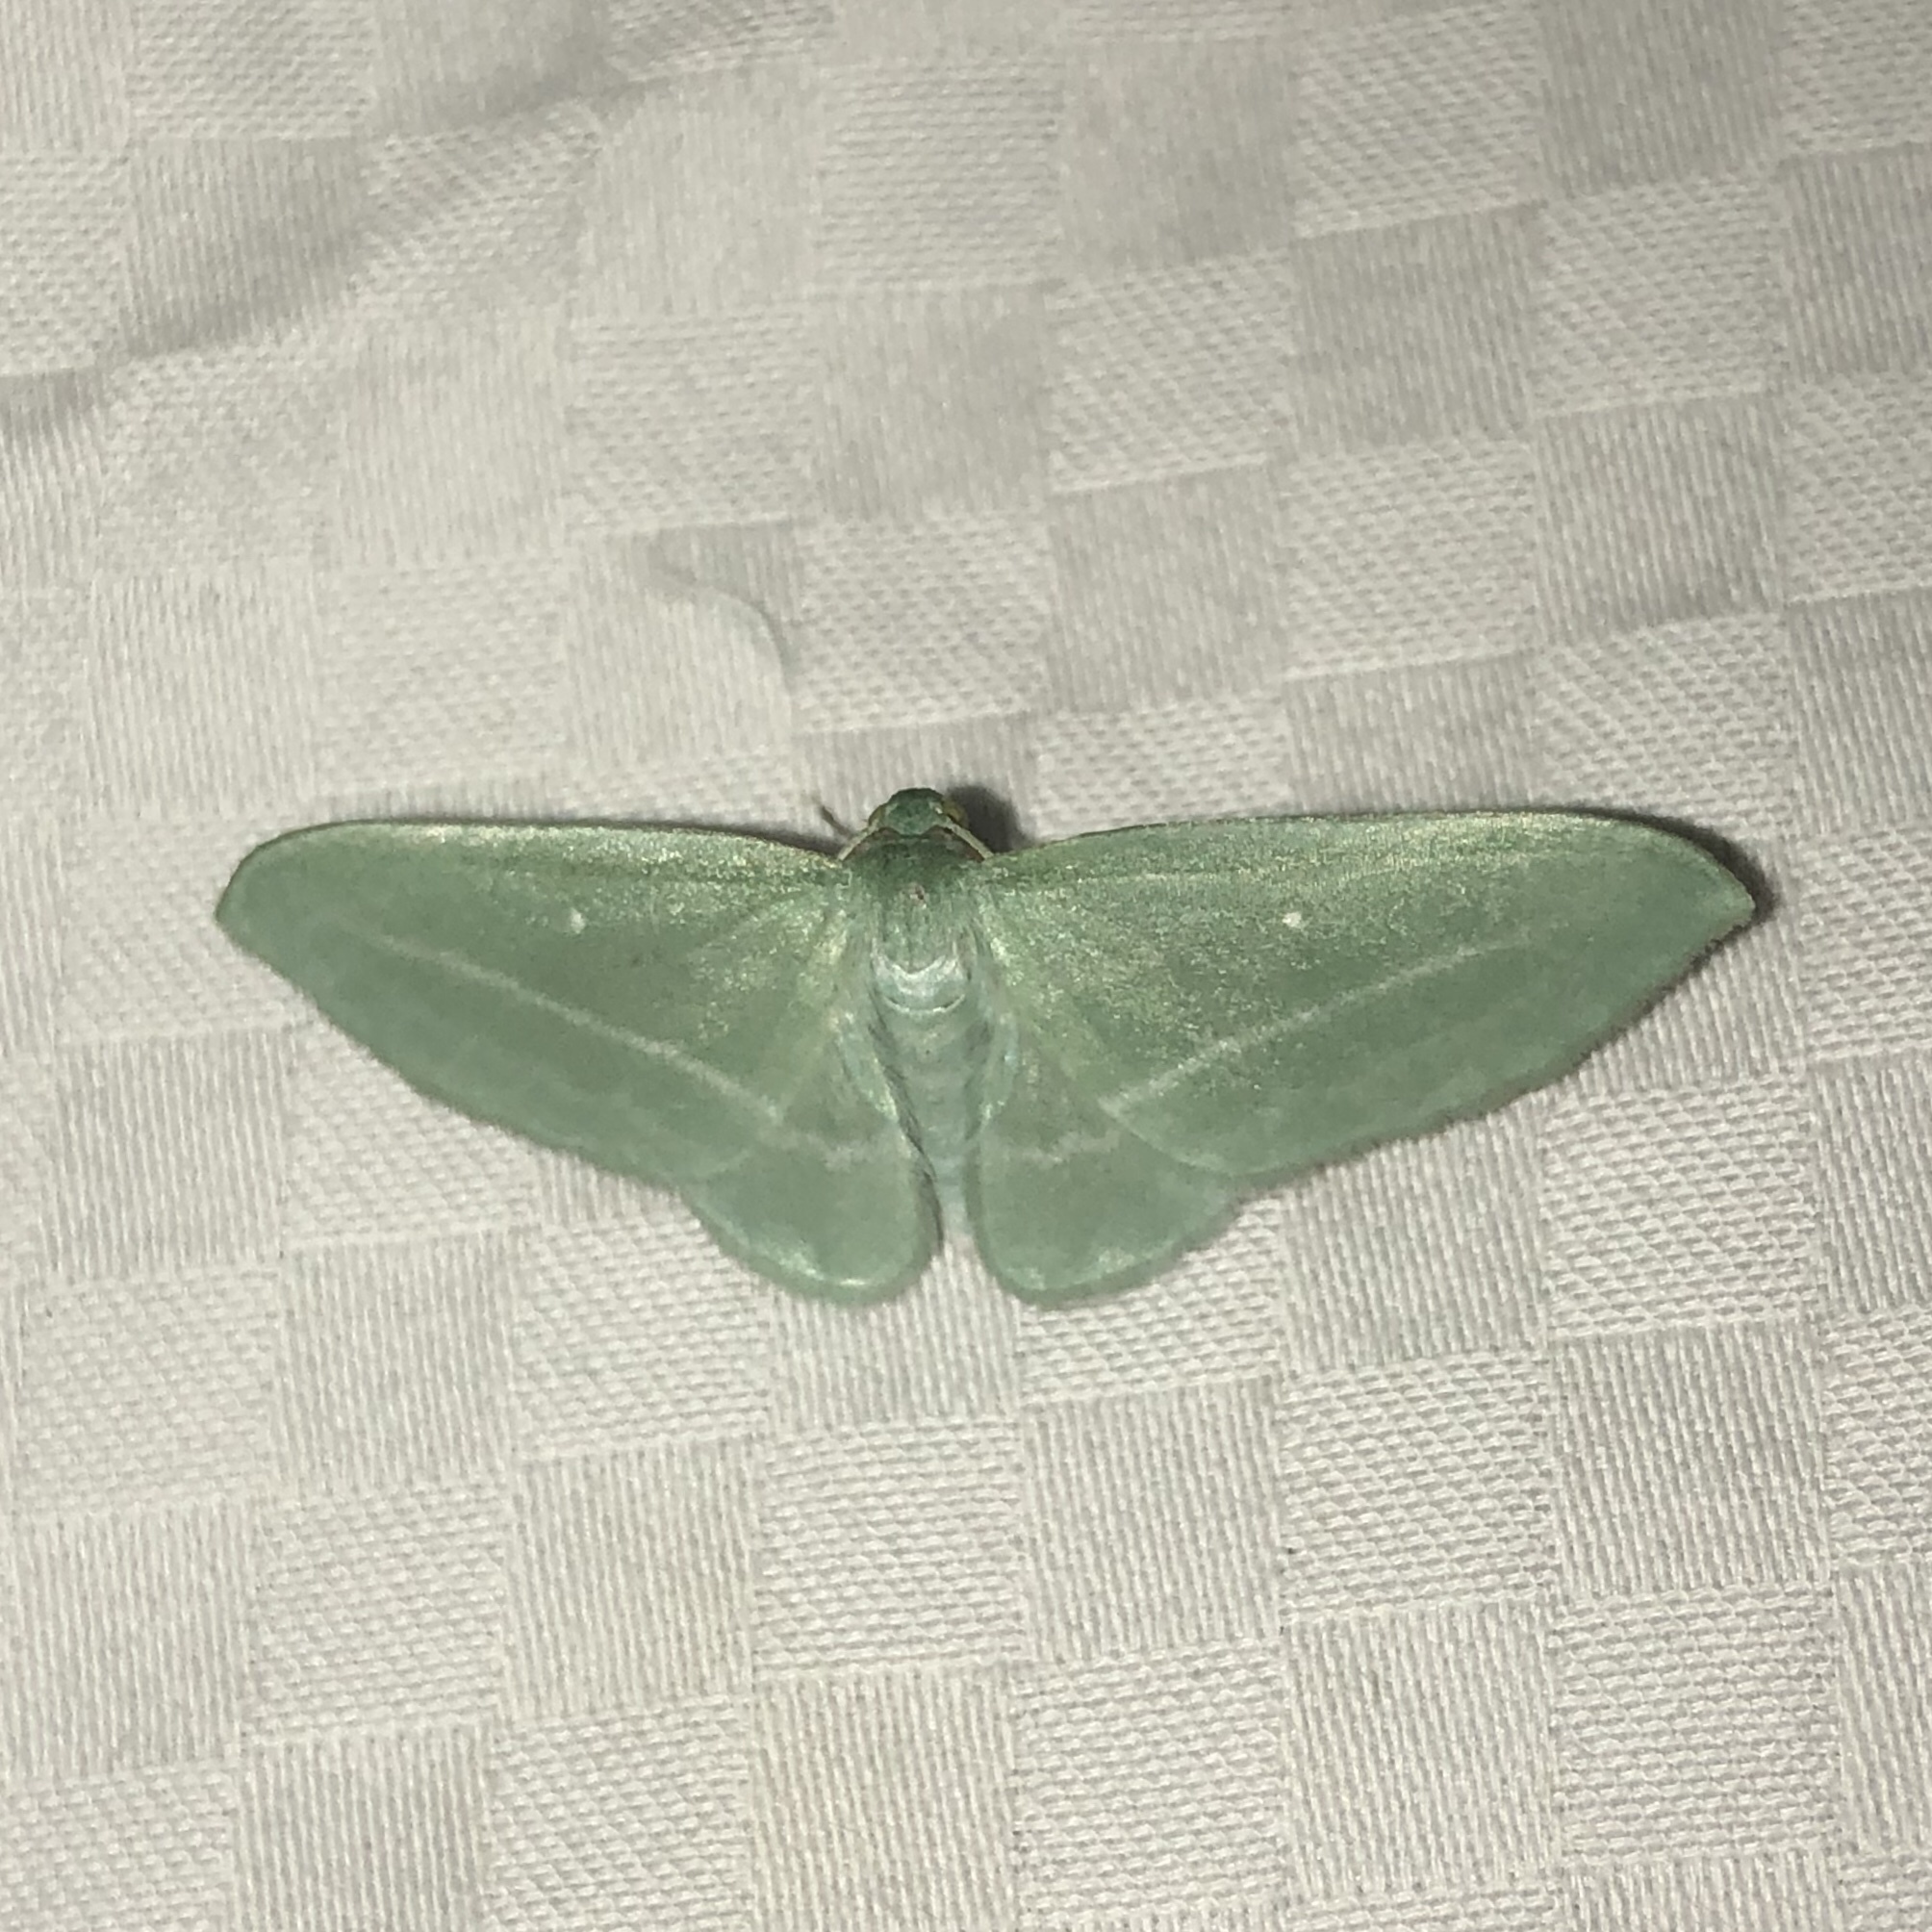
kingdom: Animalia
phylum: Arthropoda
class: Insecta
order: Lepidoptera
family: Geometridae
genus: Dyspteris
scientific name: Dyspteris abortivaria
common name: Bad-wing
